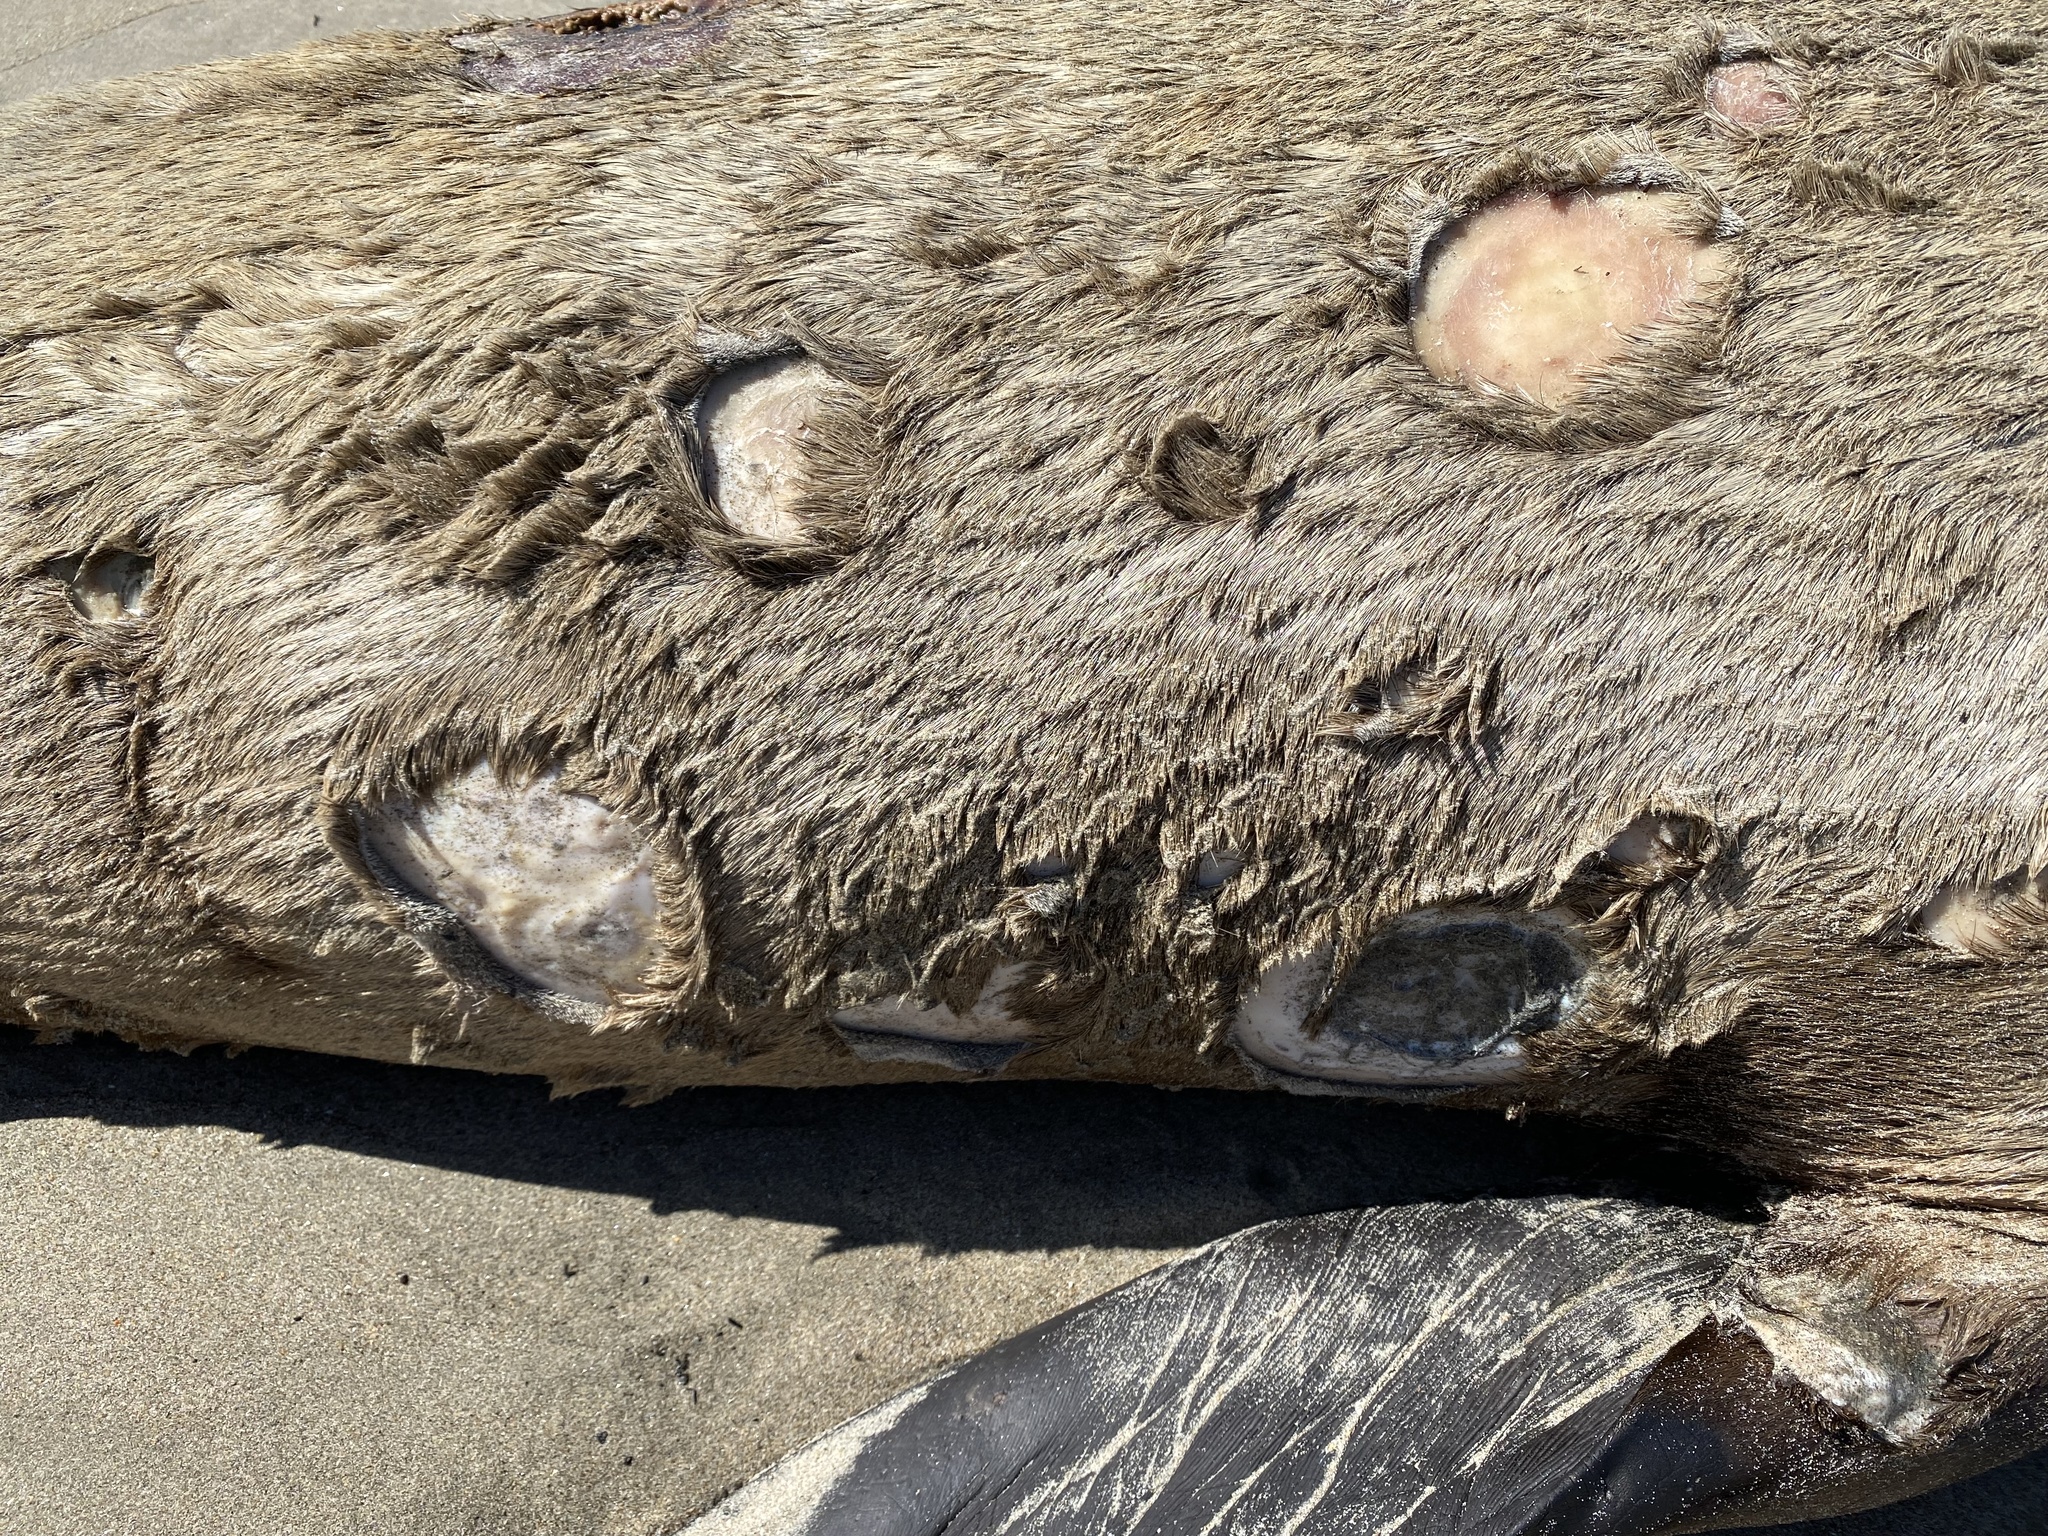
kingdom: Animalia
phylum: Chordata
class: Elasmobranchii
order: Squaliformes
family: Dalatiidae
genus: Isistius
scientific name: Isistius brasiliensis
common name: Cookiecutter shark
